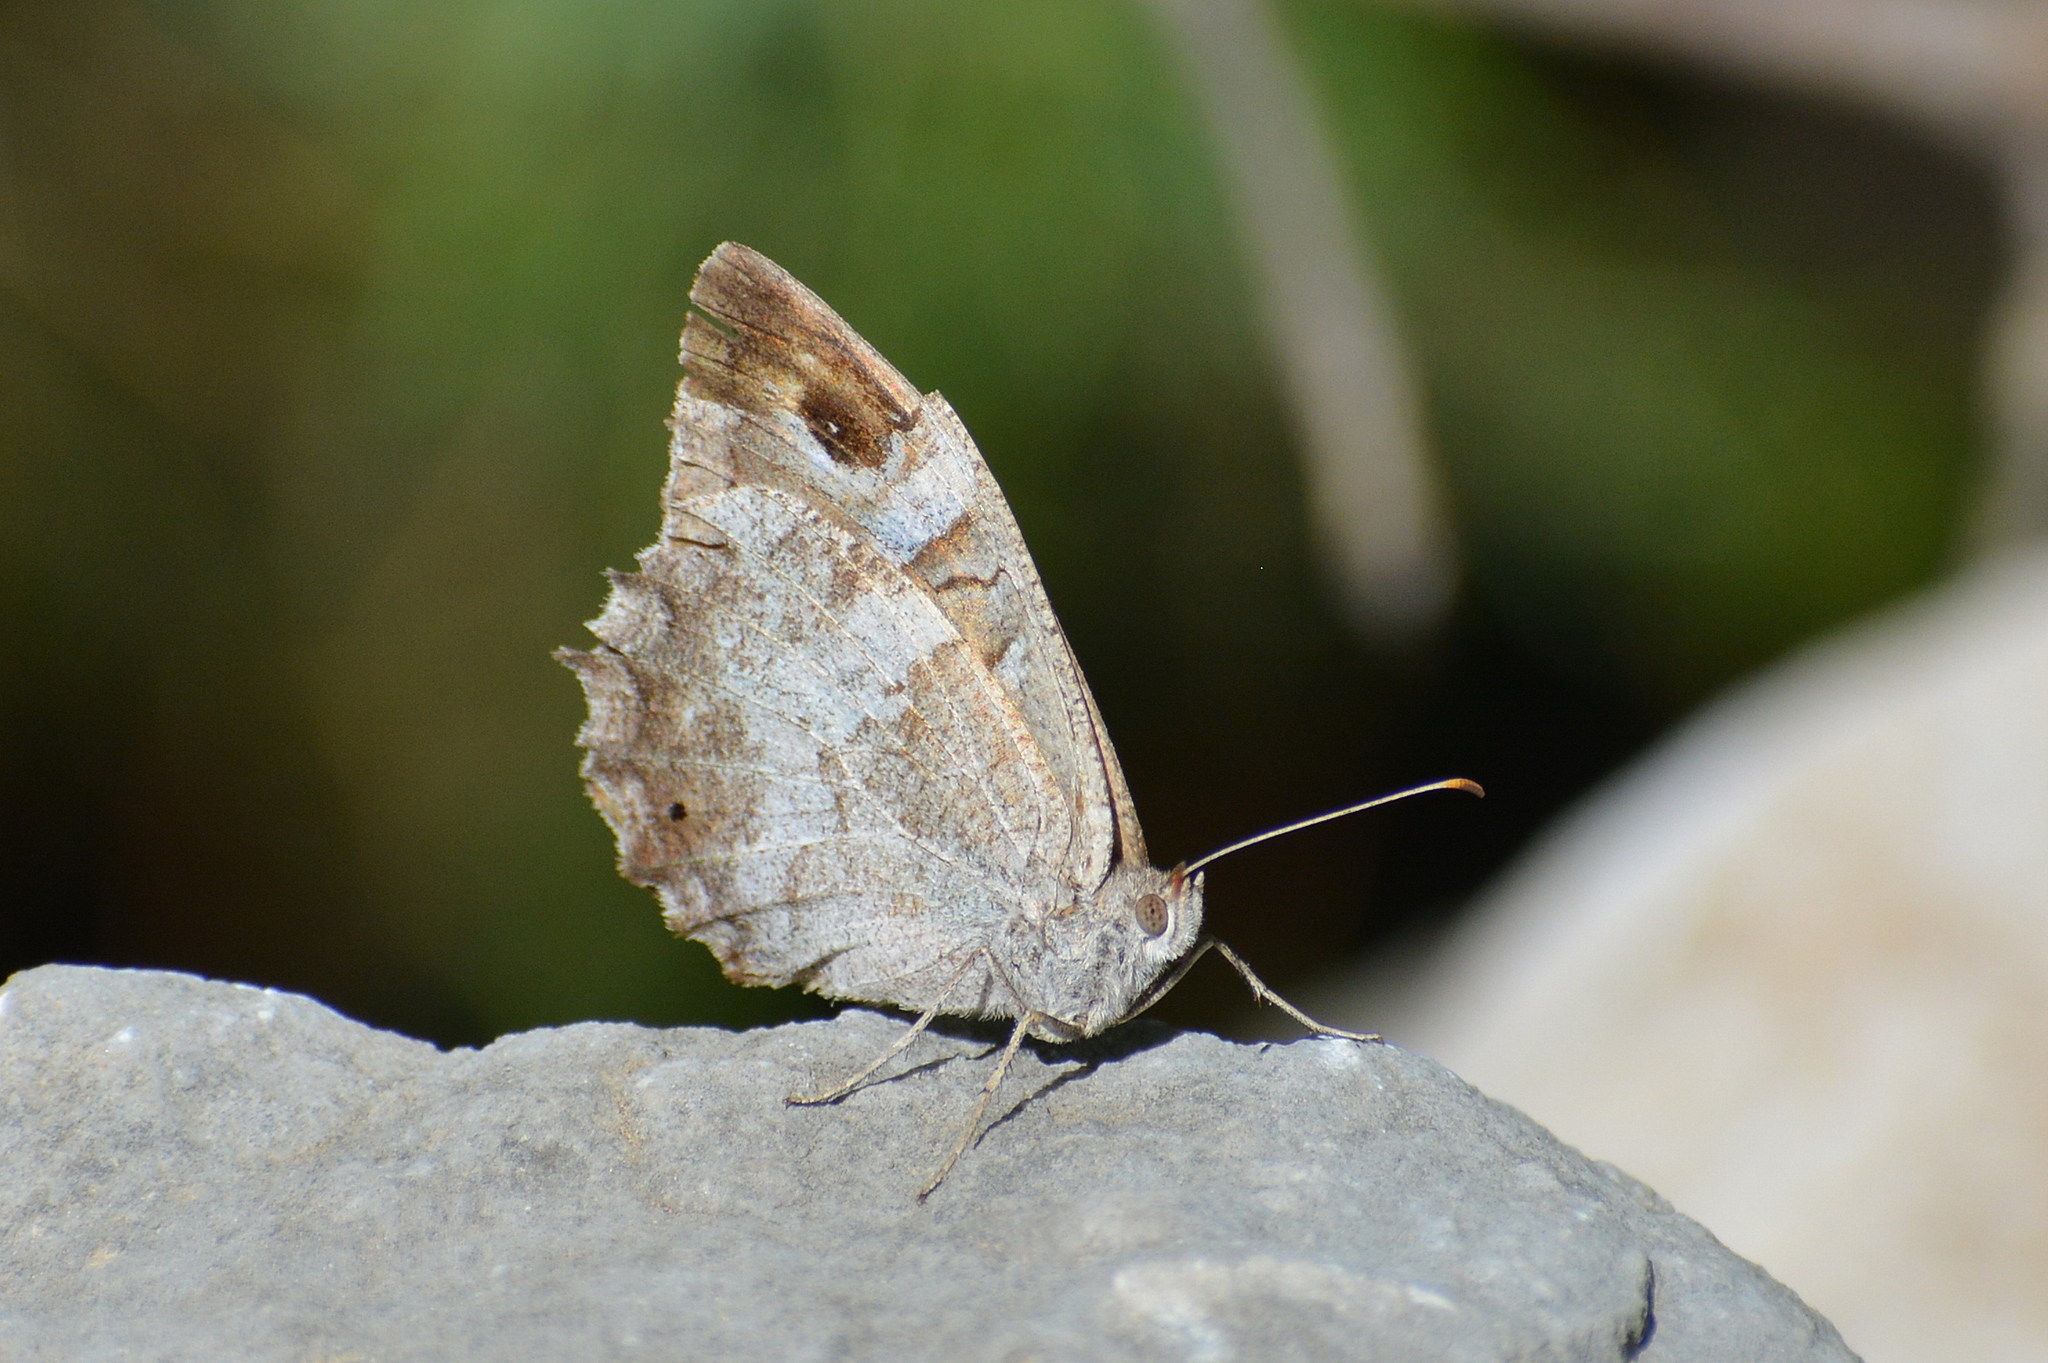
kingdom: Animalia
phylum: Arthropoda
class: Insecta
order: Lepidoptera
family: Nymphalidae
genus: Hipparchia
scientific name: Hipparchia statilinus
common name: Tree grayling
